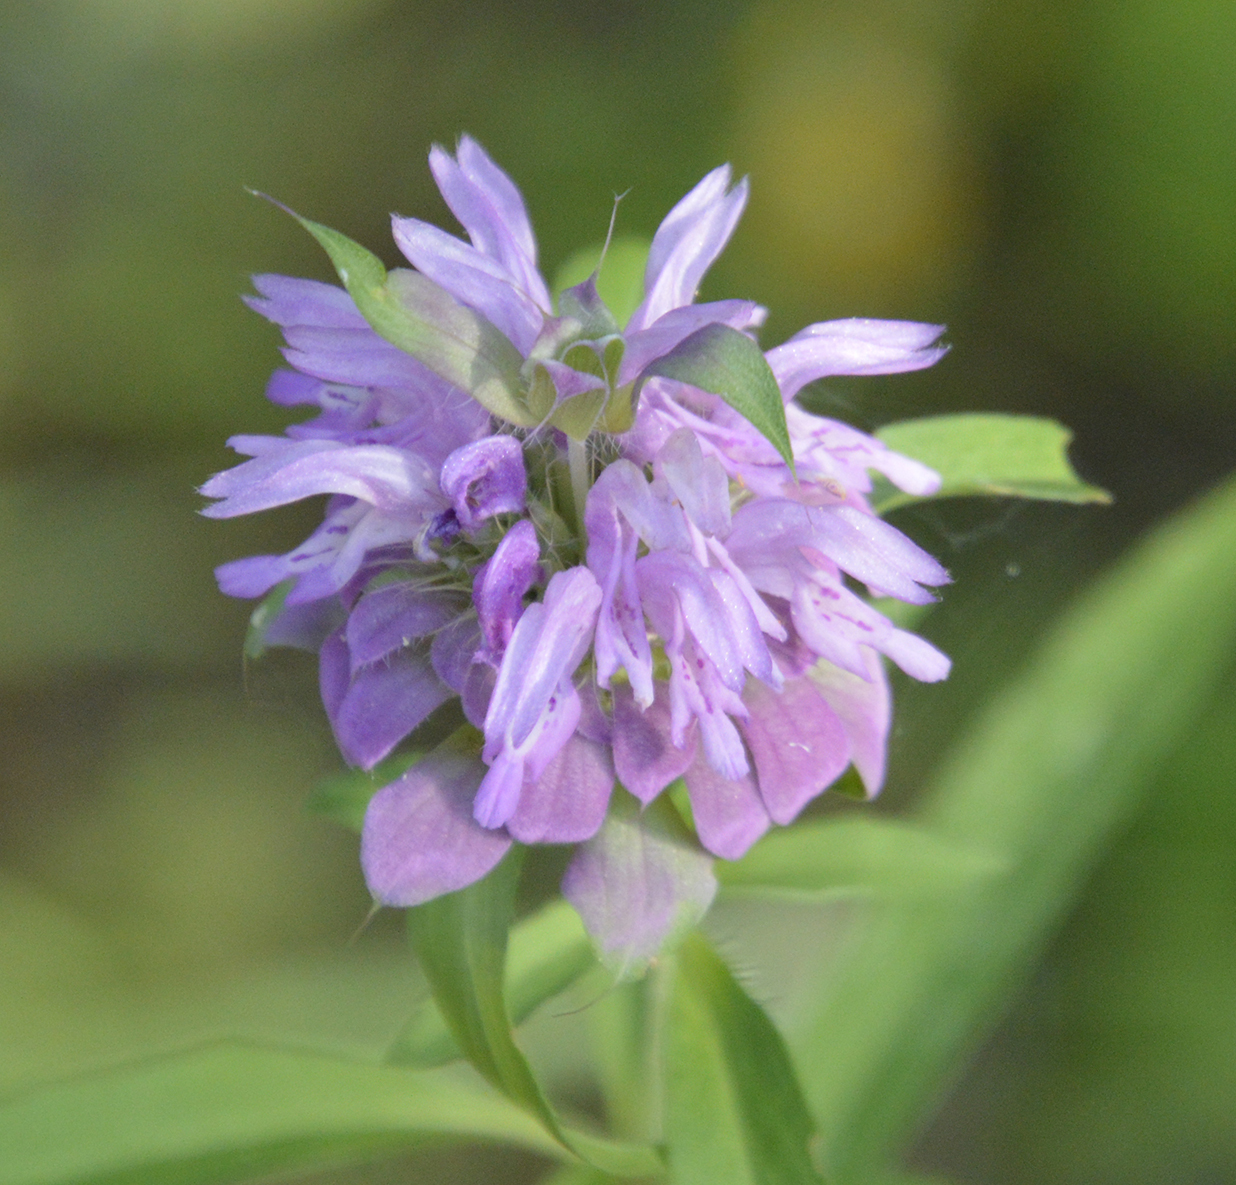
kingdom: Plantae
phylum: Tracheophyta
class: Magnoliopsida
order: Lamiales
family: Lamiaceae
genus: Monarda
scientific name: Monarda citriodora
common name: Lemon beebalm
